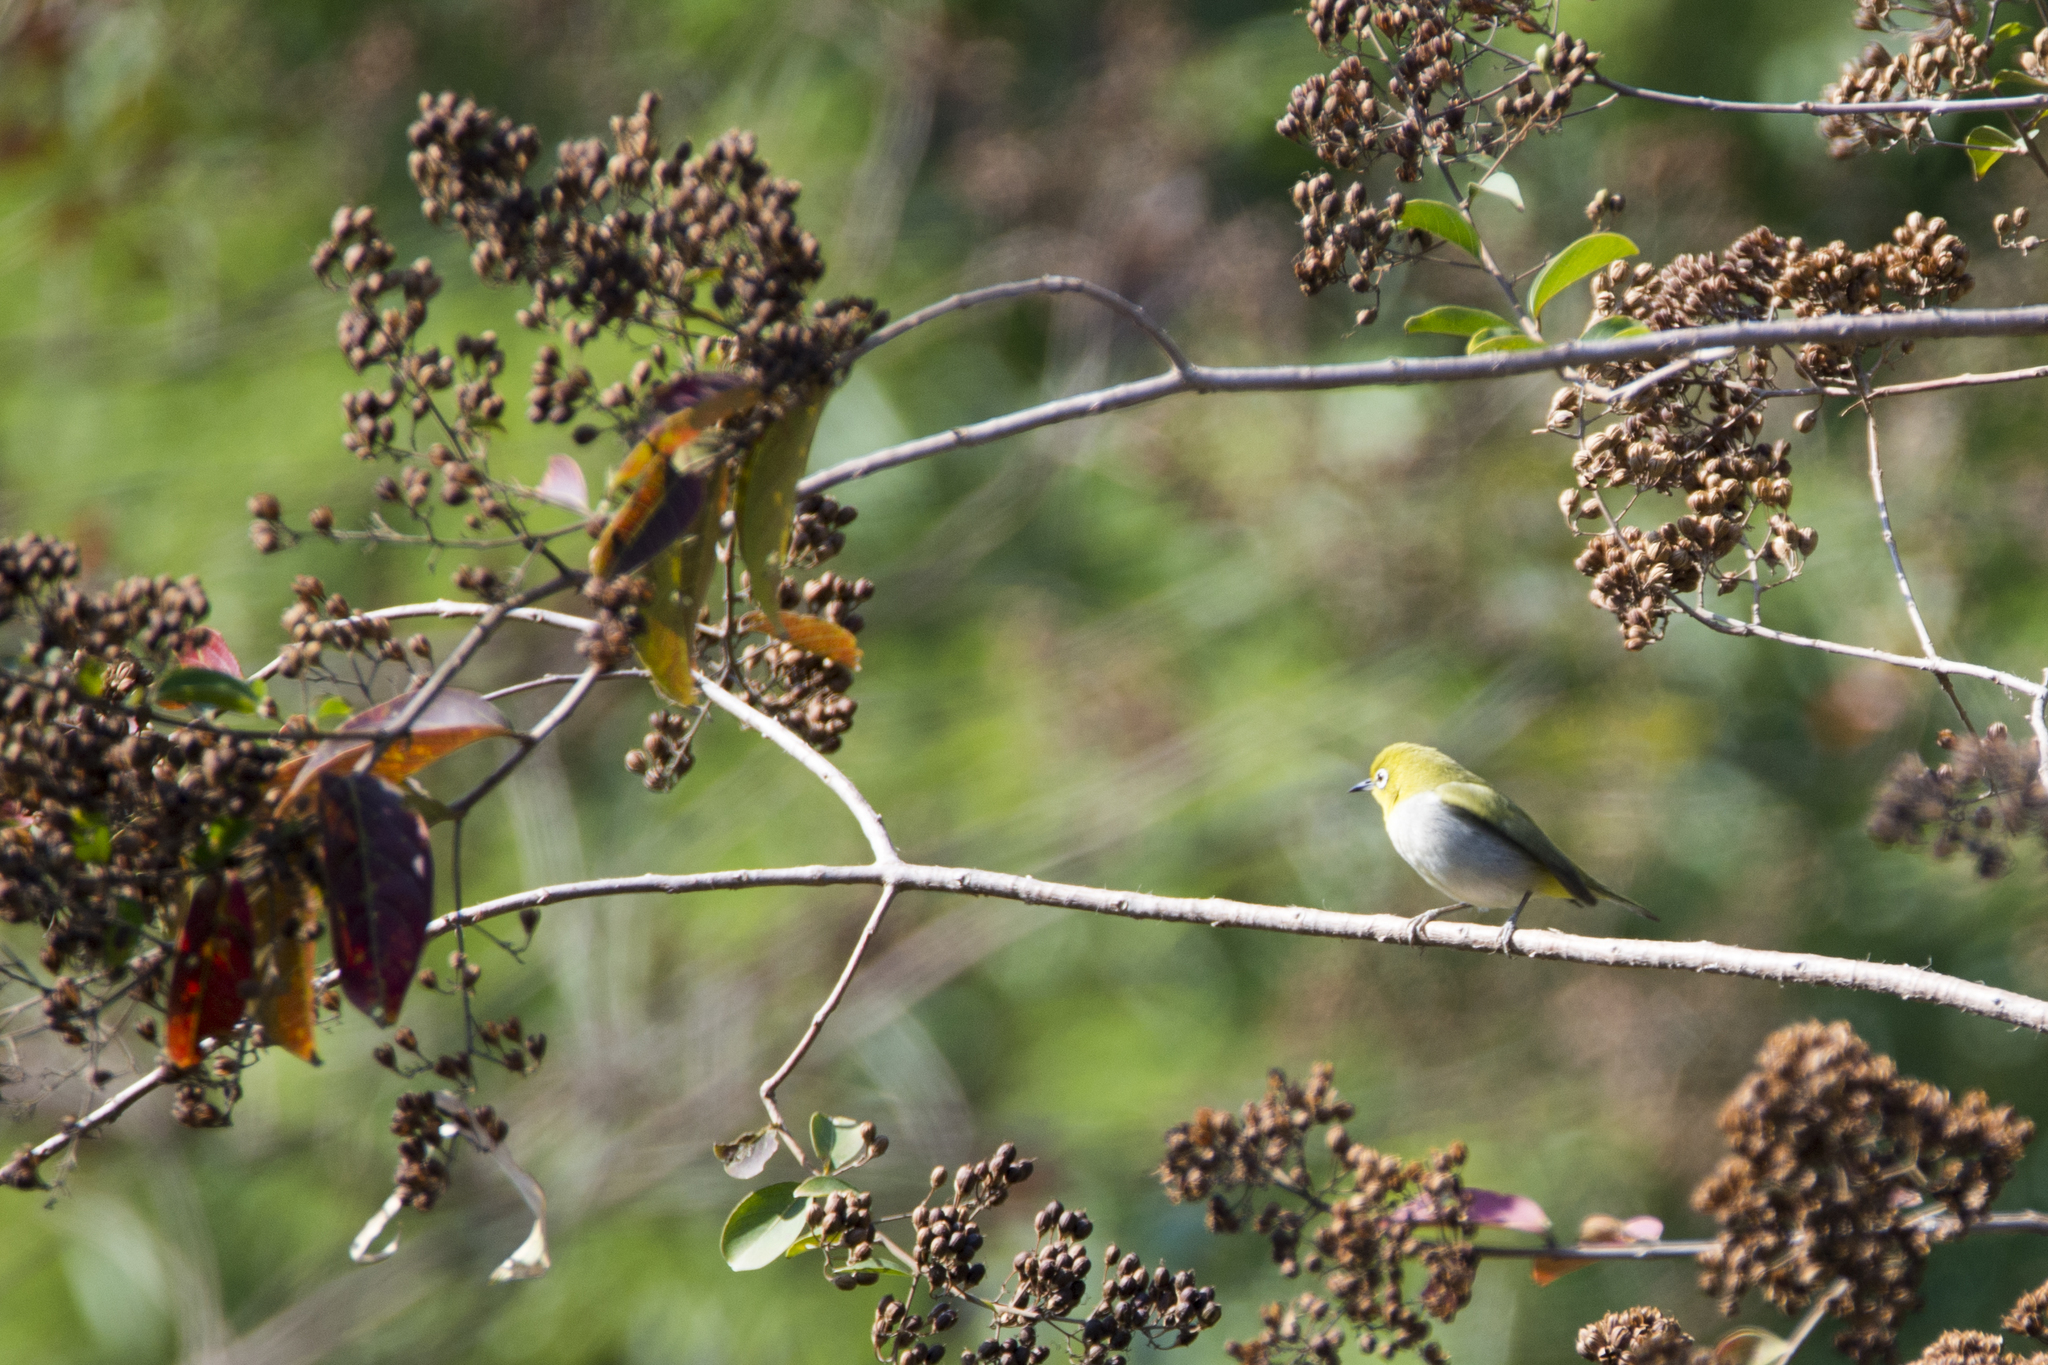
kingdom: Animalia
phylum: Chordata
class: Aves
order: Passeriformes
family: Zosteropidae
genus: Zosterops
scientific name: Zosterops simplex
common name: Swinhoe's white-eye
